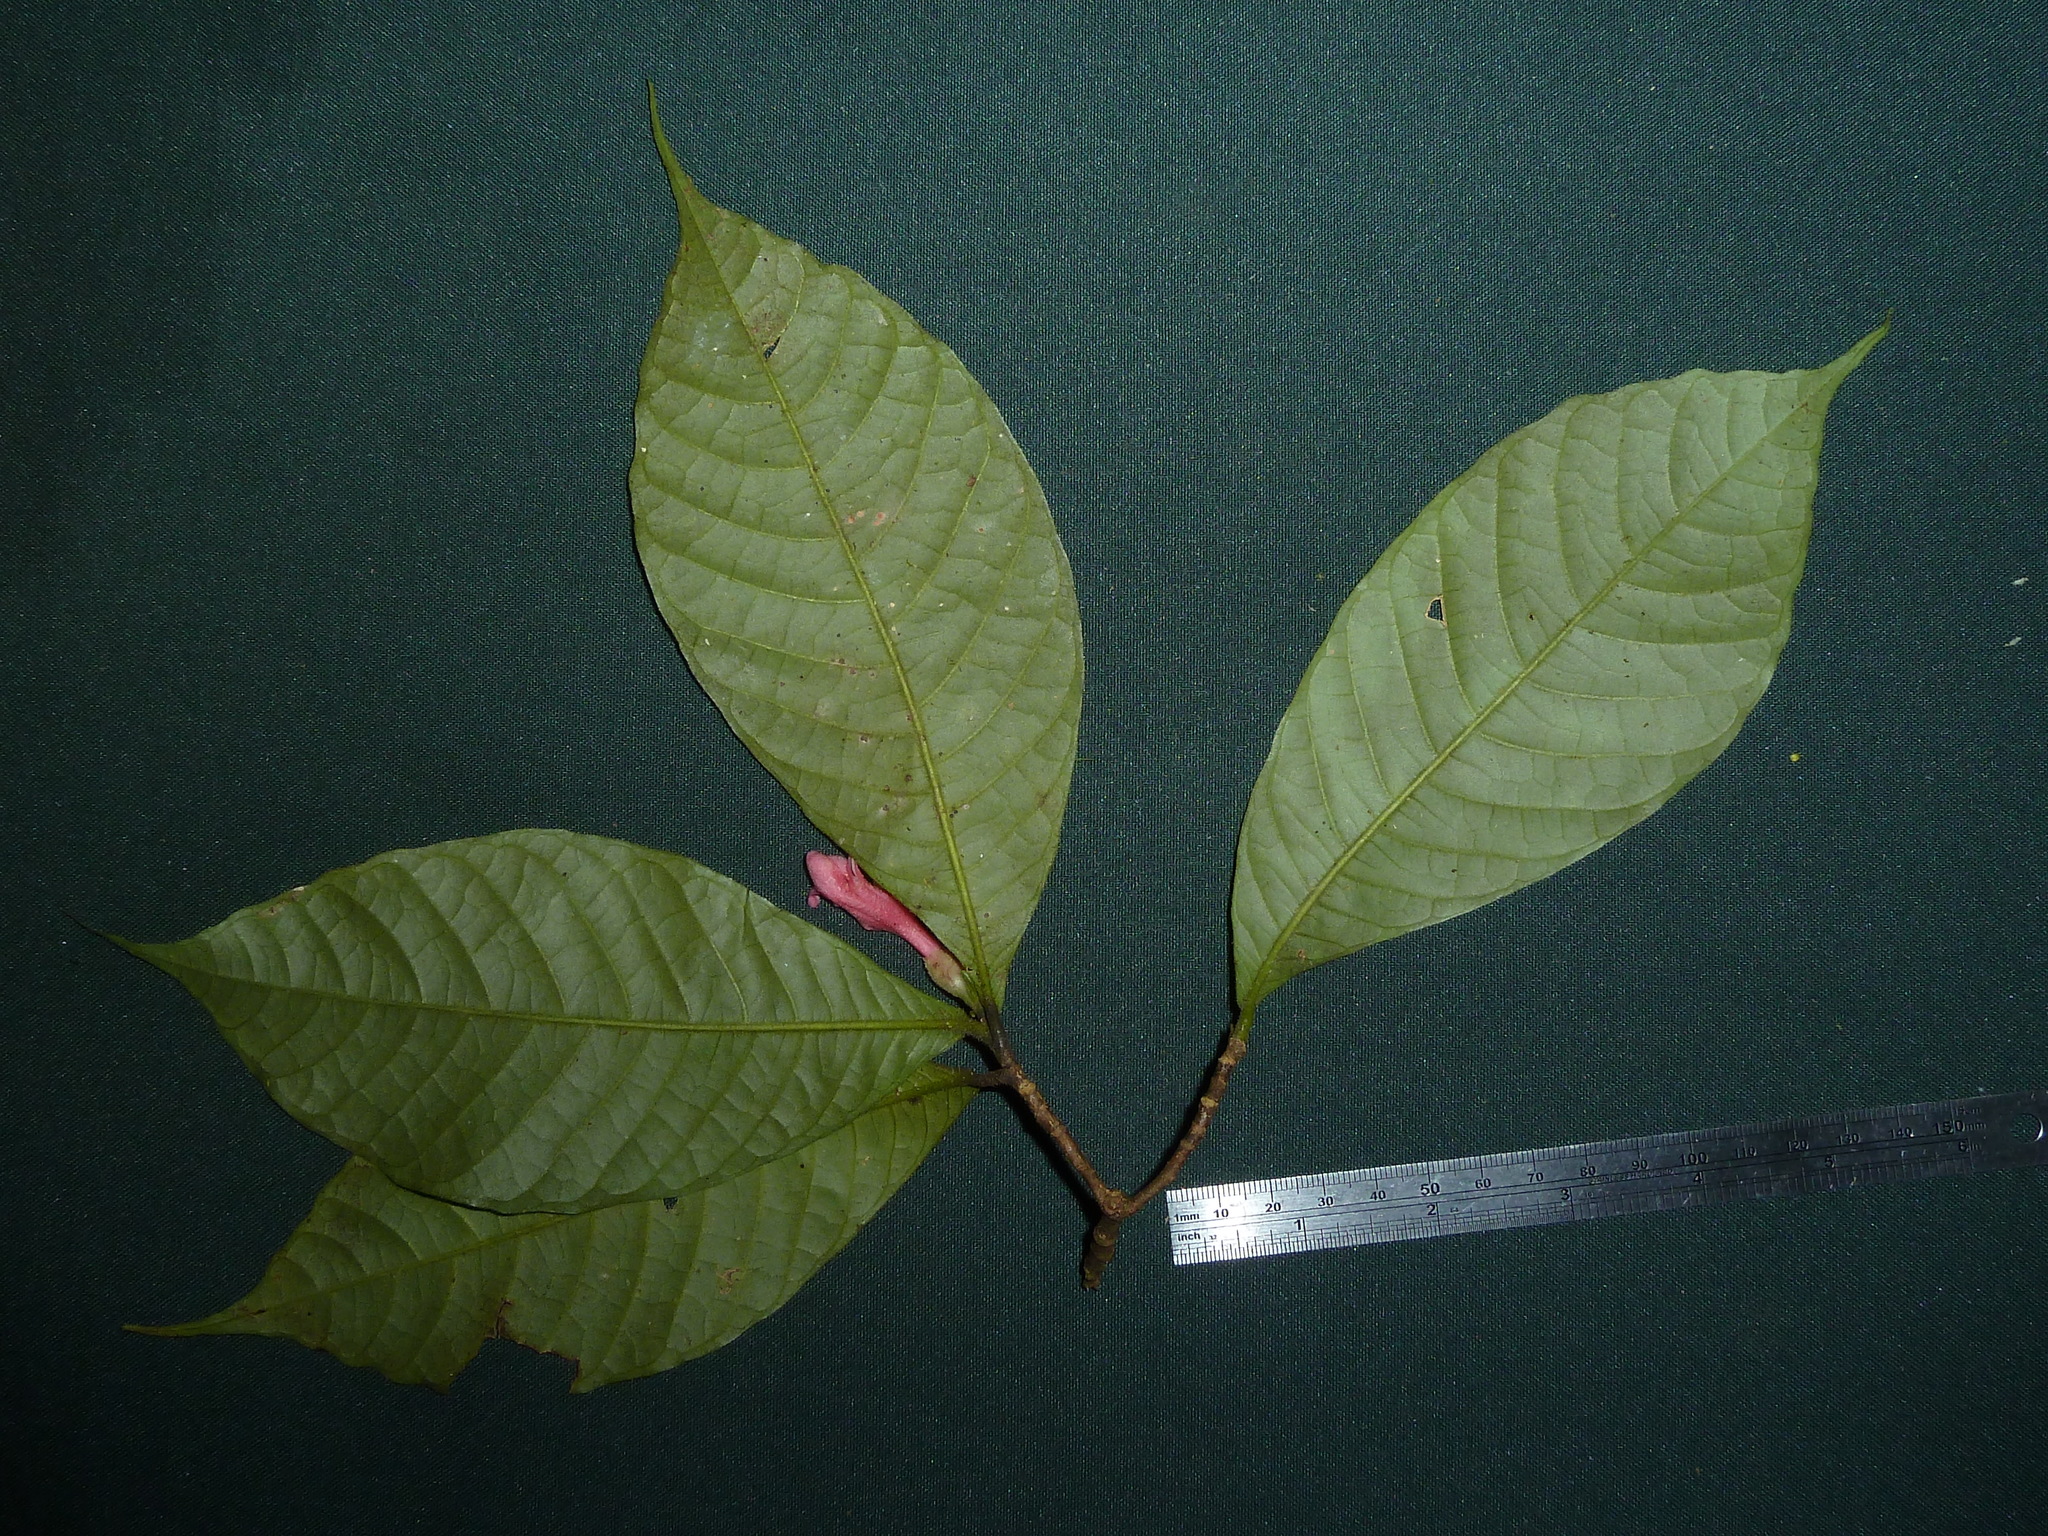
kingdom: Plantae
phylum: Tracheophyta
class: Magnoliopsida
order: Sapindales
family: Rutaceae
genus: Ravenia
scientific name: Ravenia spectabilis
